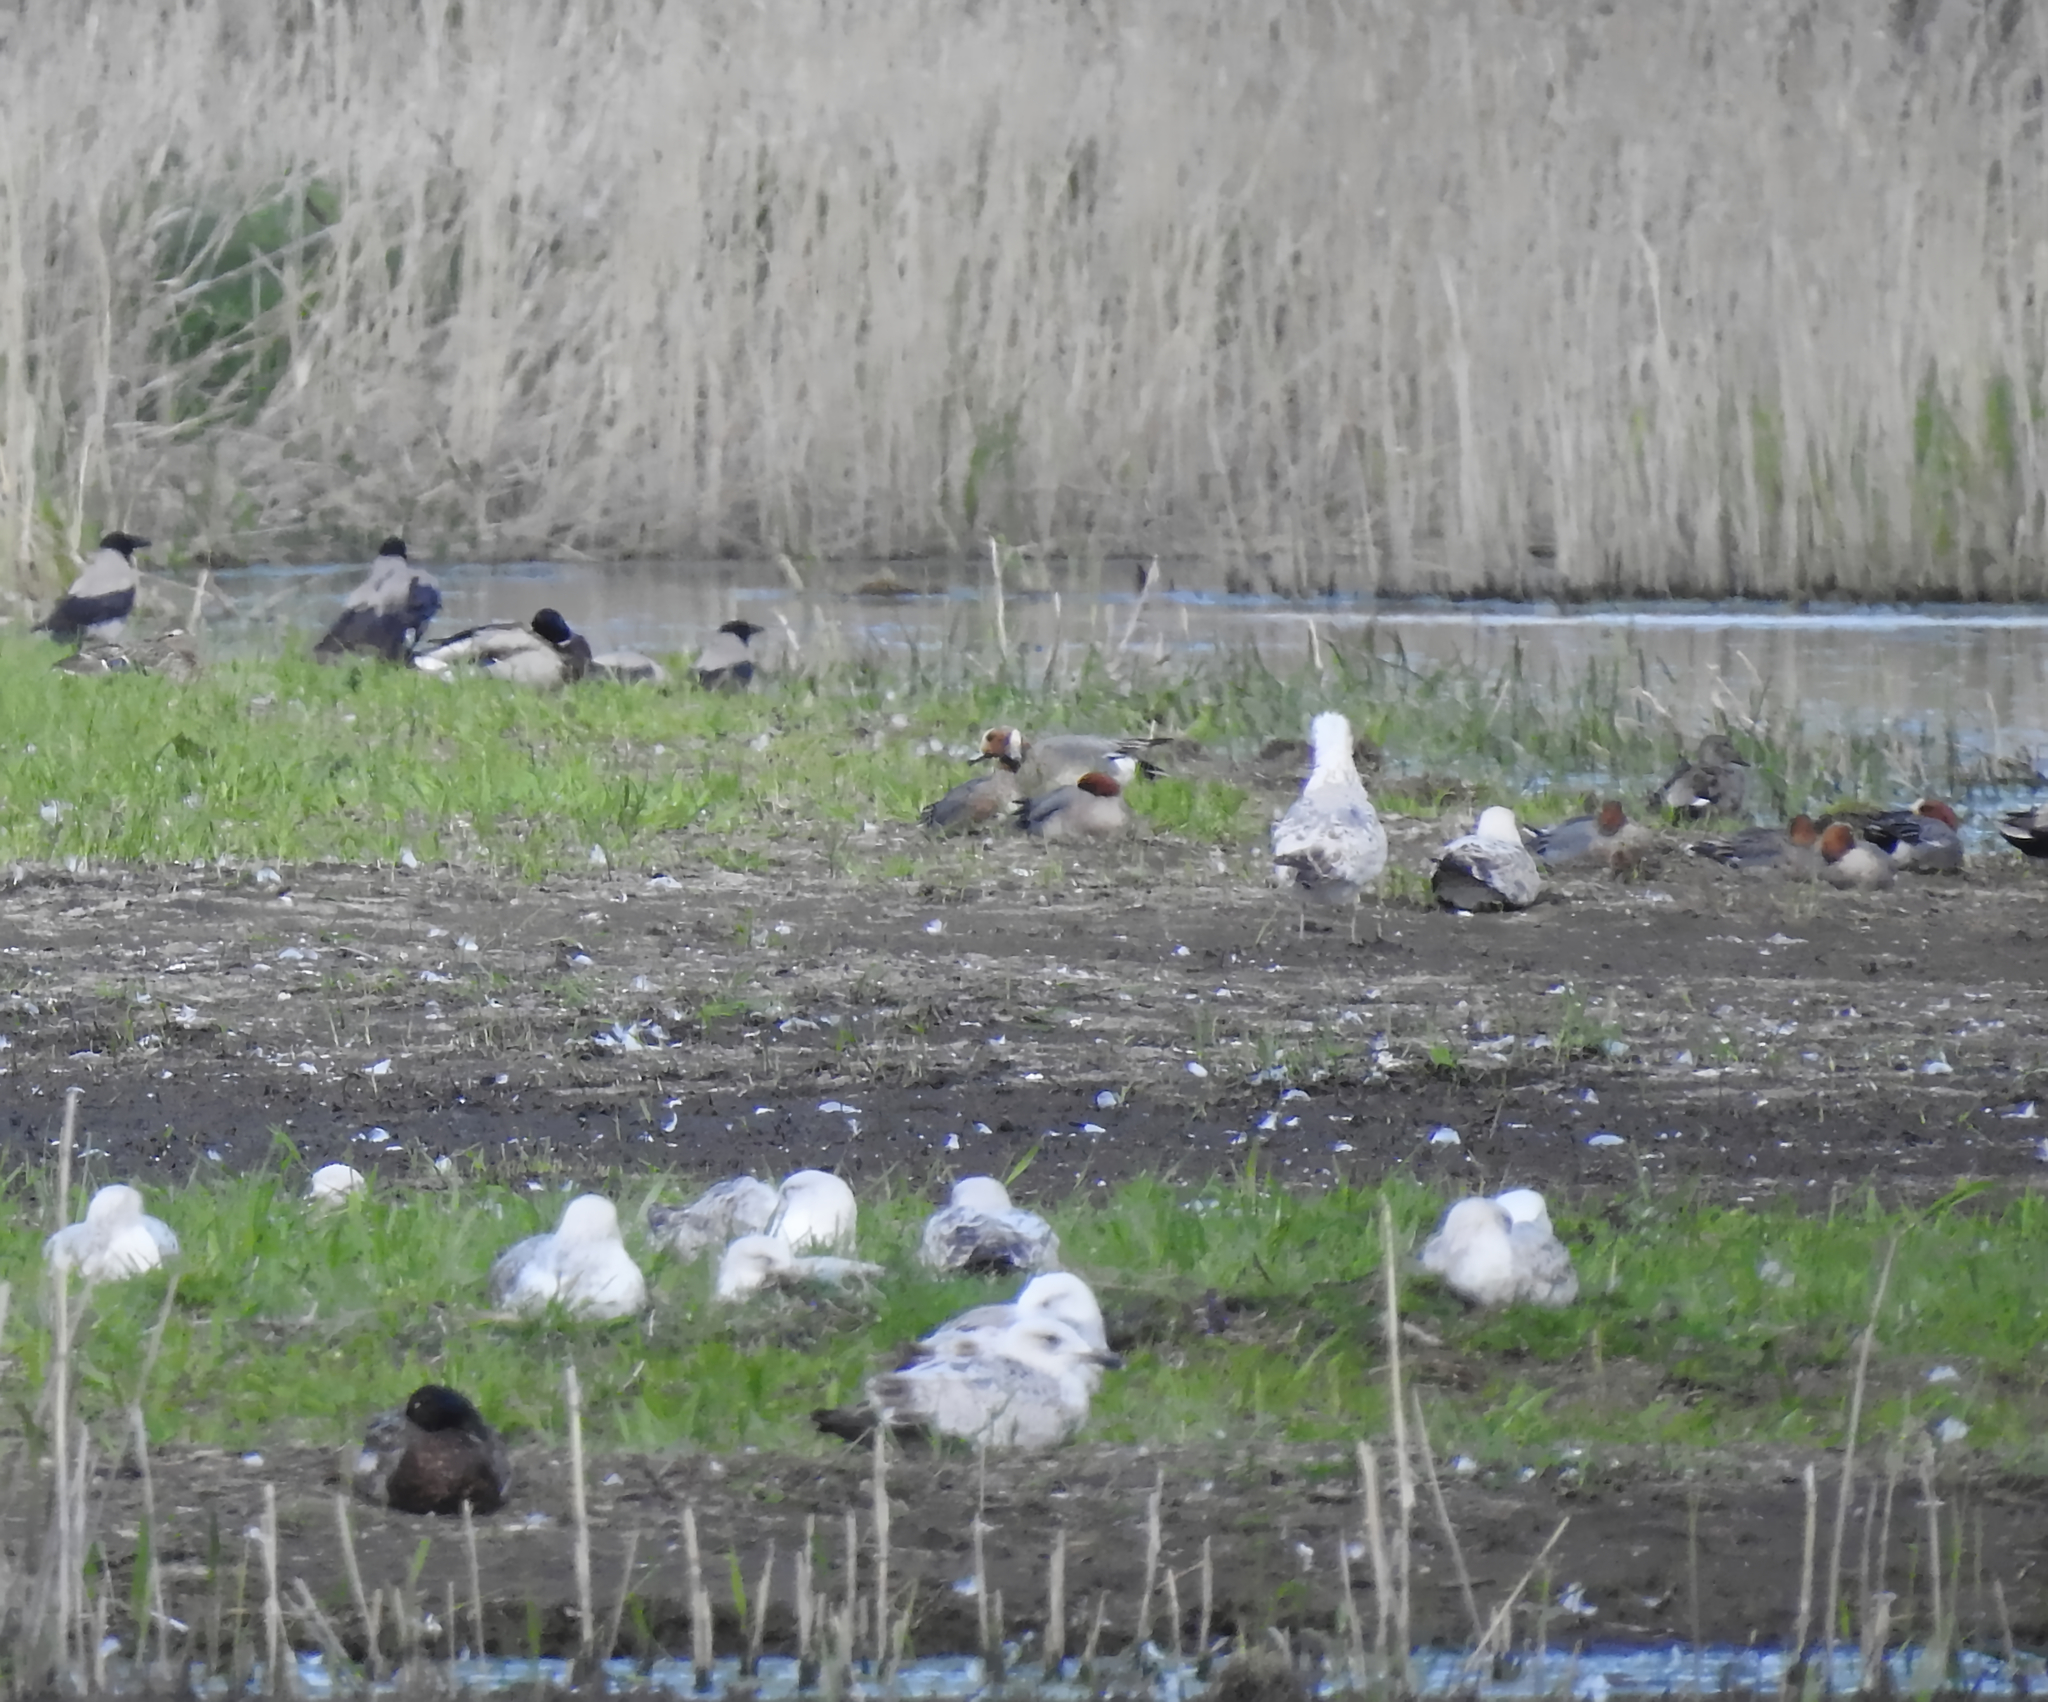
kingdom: Animalia
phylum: Chordata
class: Aves
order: Passeriformes
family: Corvidae
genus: Corvus
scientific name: Corvus cornix
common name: Hooded crow
